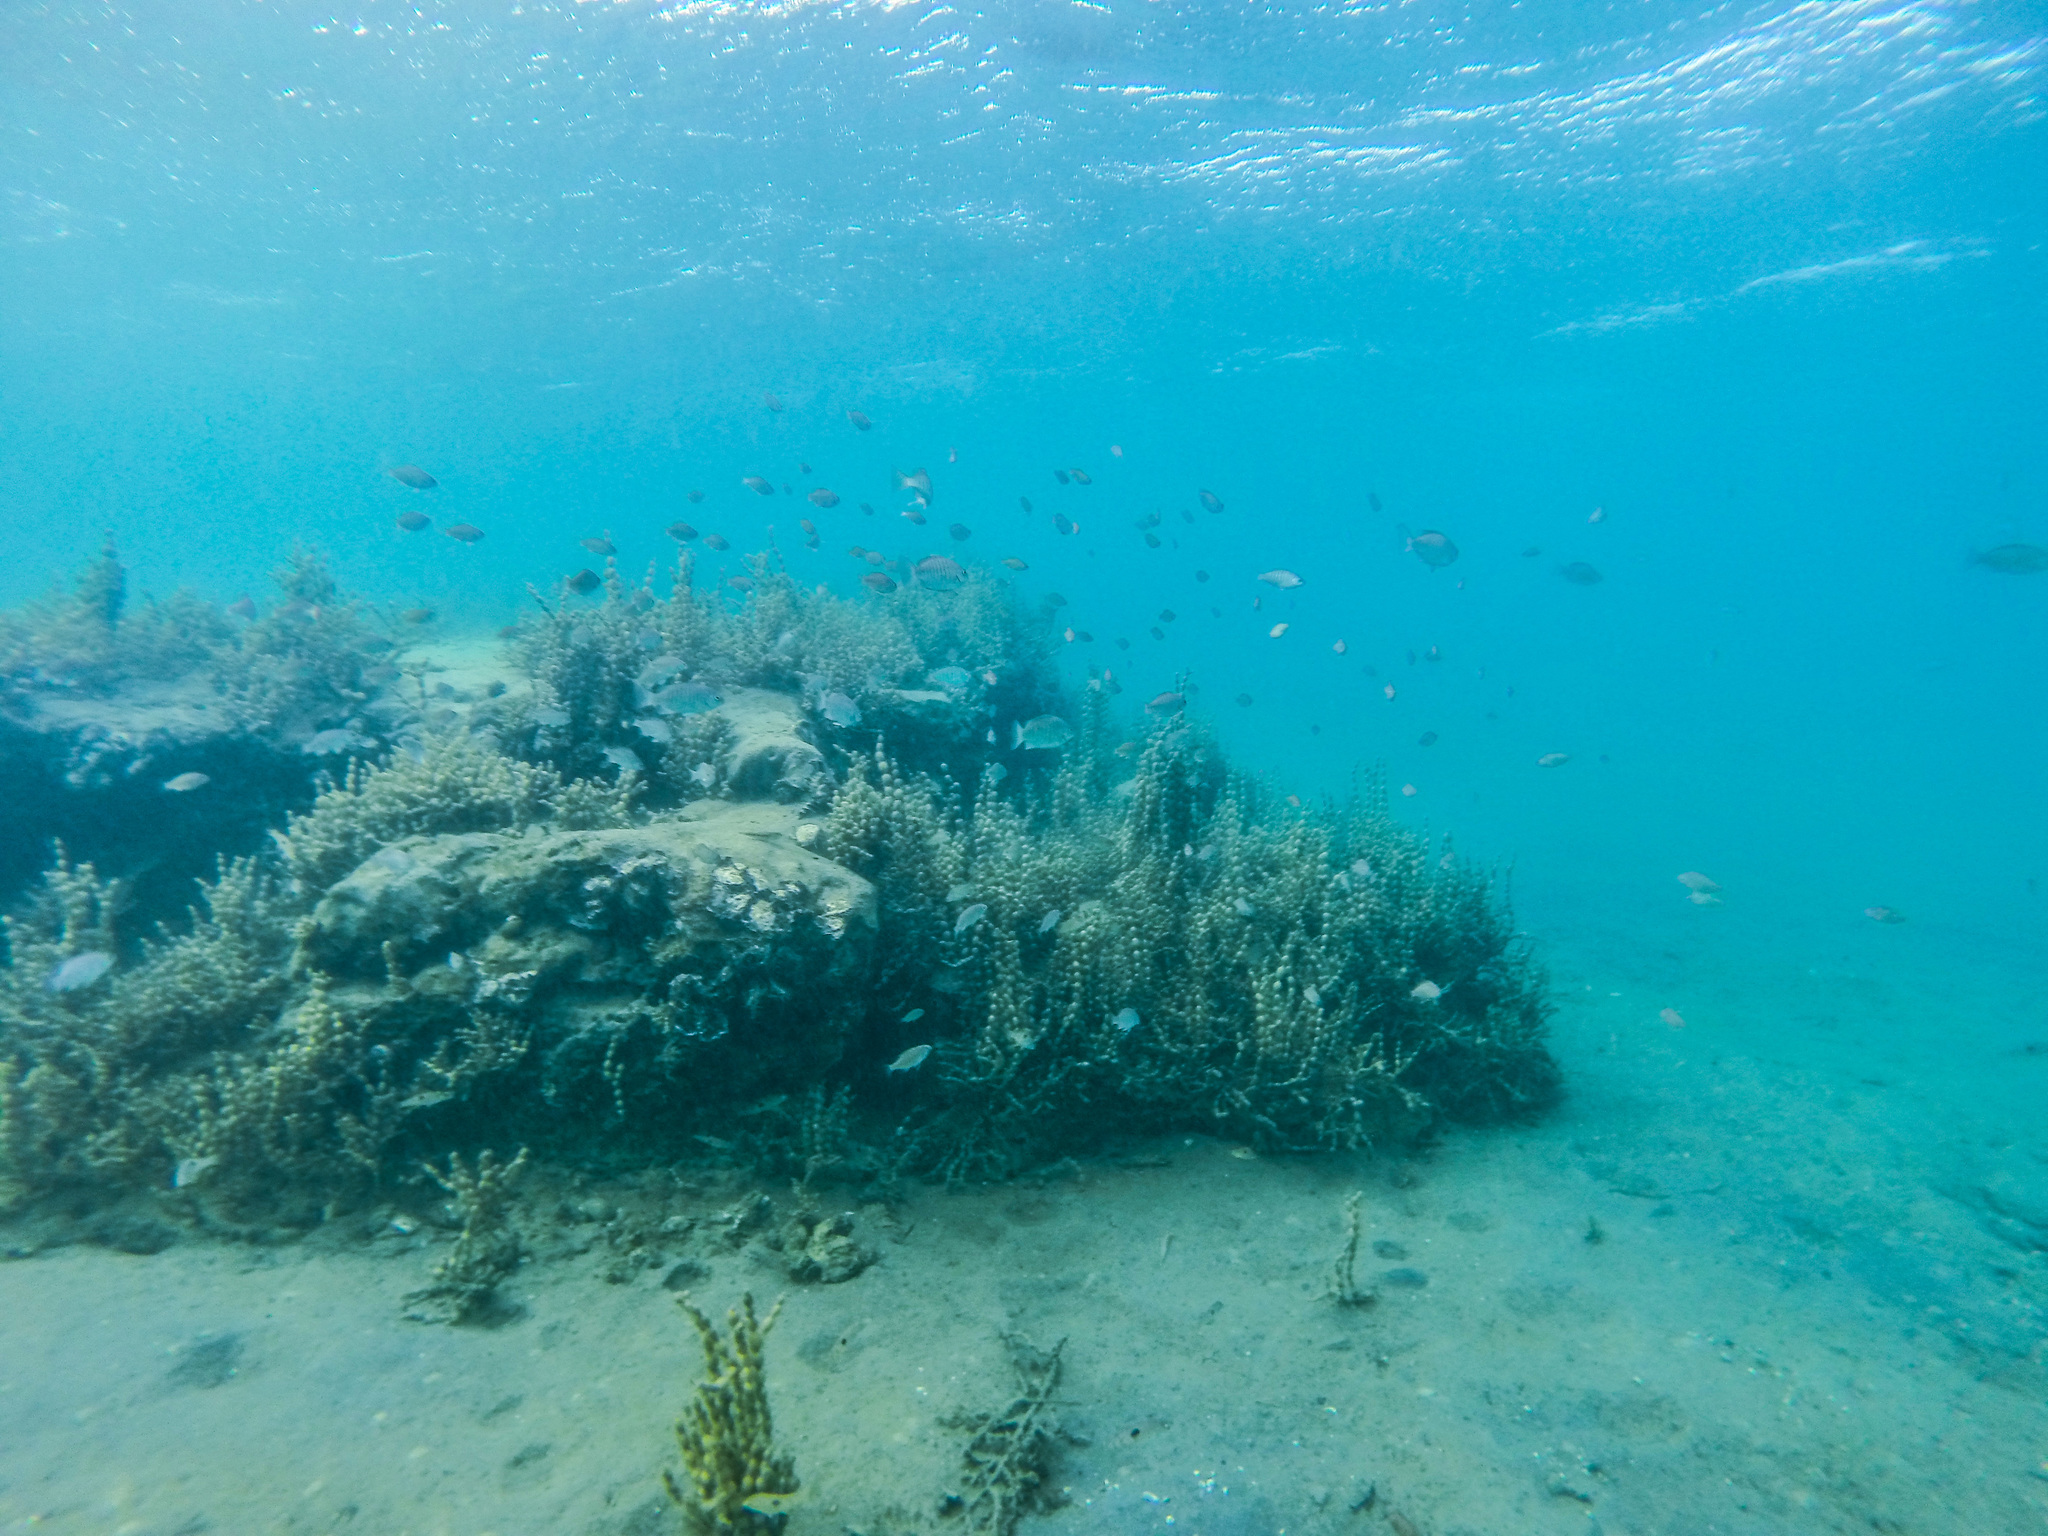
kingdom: Animalia
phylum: Chordata
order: Perciformes
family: Kyphosidae
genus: Girella
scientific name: Girella tricuspidata
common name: Parore
